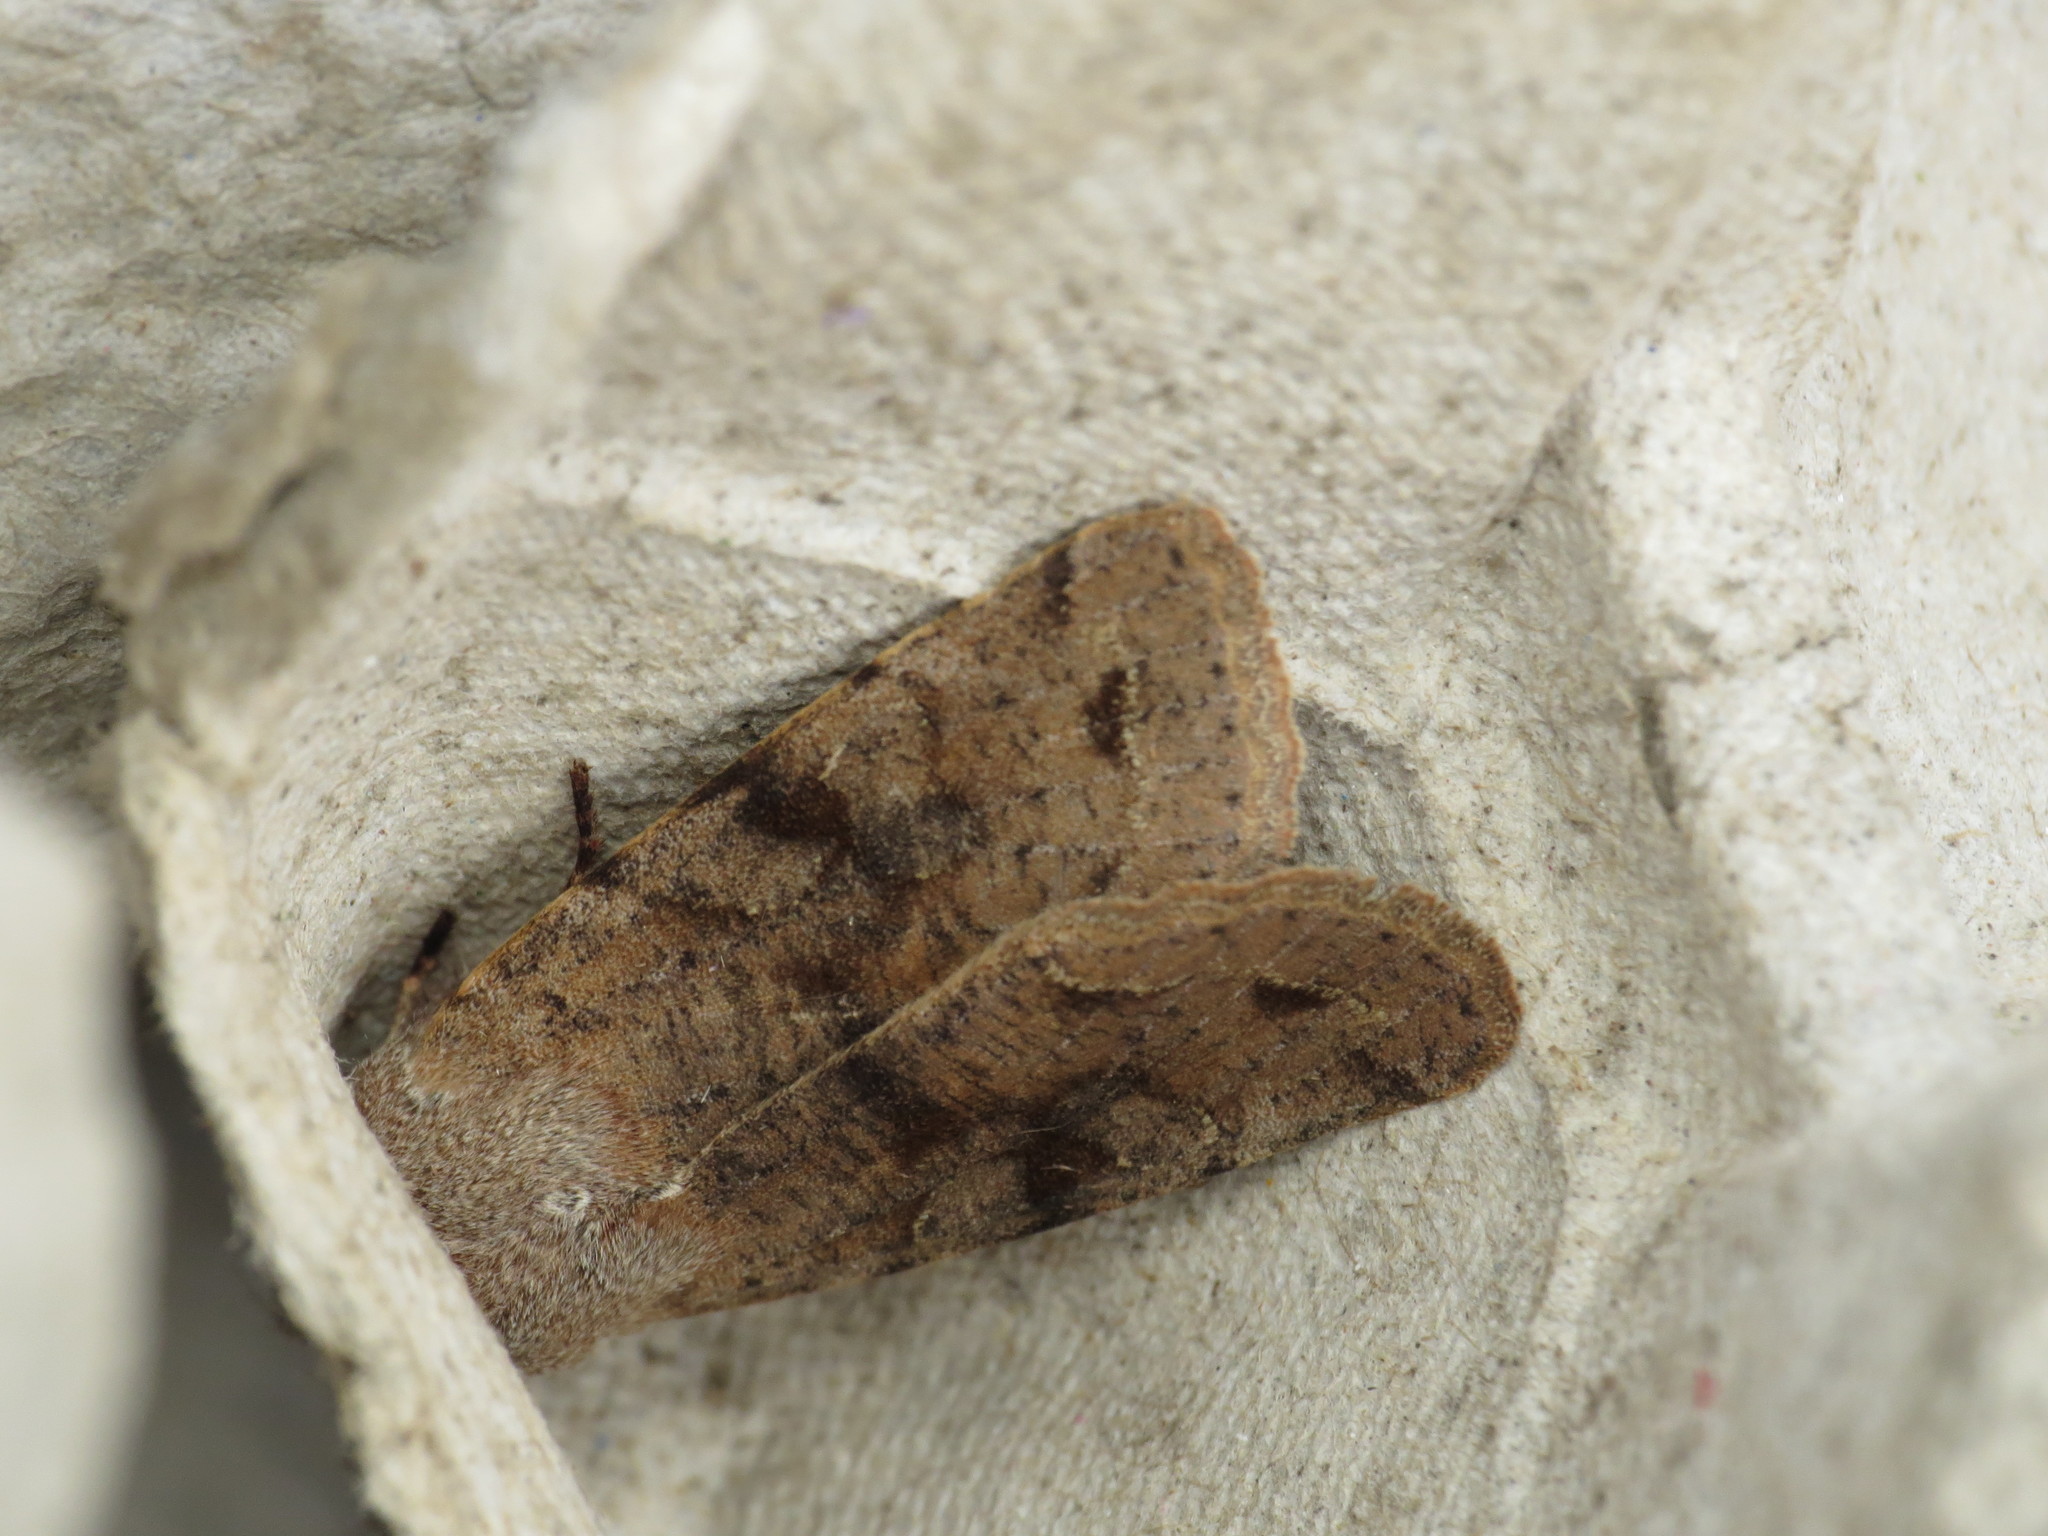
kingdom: Animalia
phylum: Arthropoda
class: Insecta
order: Lepidoptera
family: Noctuidae
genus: Orthosia
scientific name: Orthosia incerta
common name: Clouded drab
